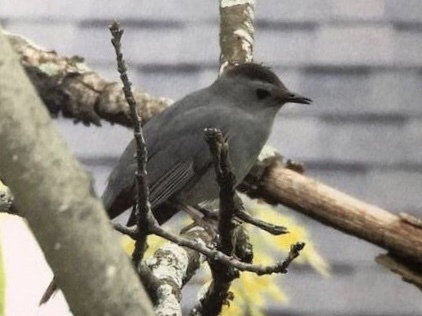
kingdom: Animalia
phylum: Chordata
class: Aves
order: Passeriformes
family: Mimidae
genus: Dumetella
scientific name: Dumetella carolinensis
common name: Gray catbird
